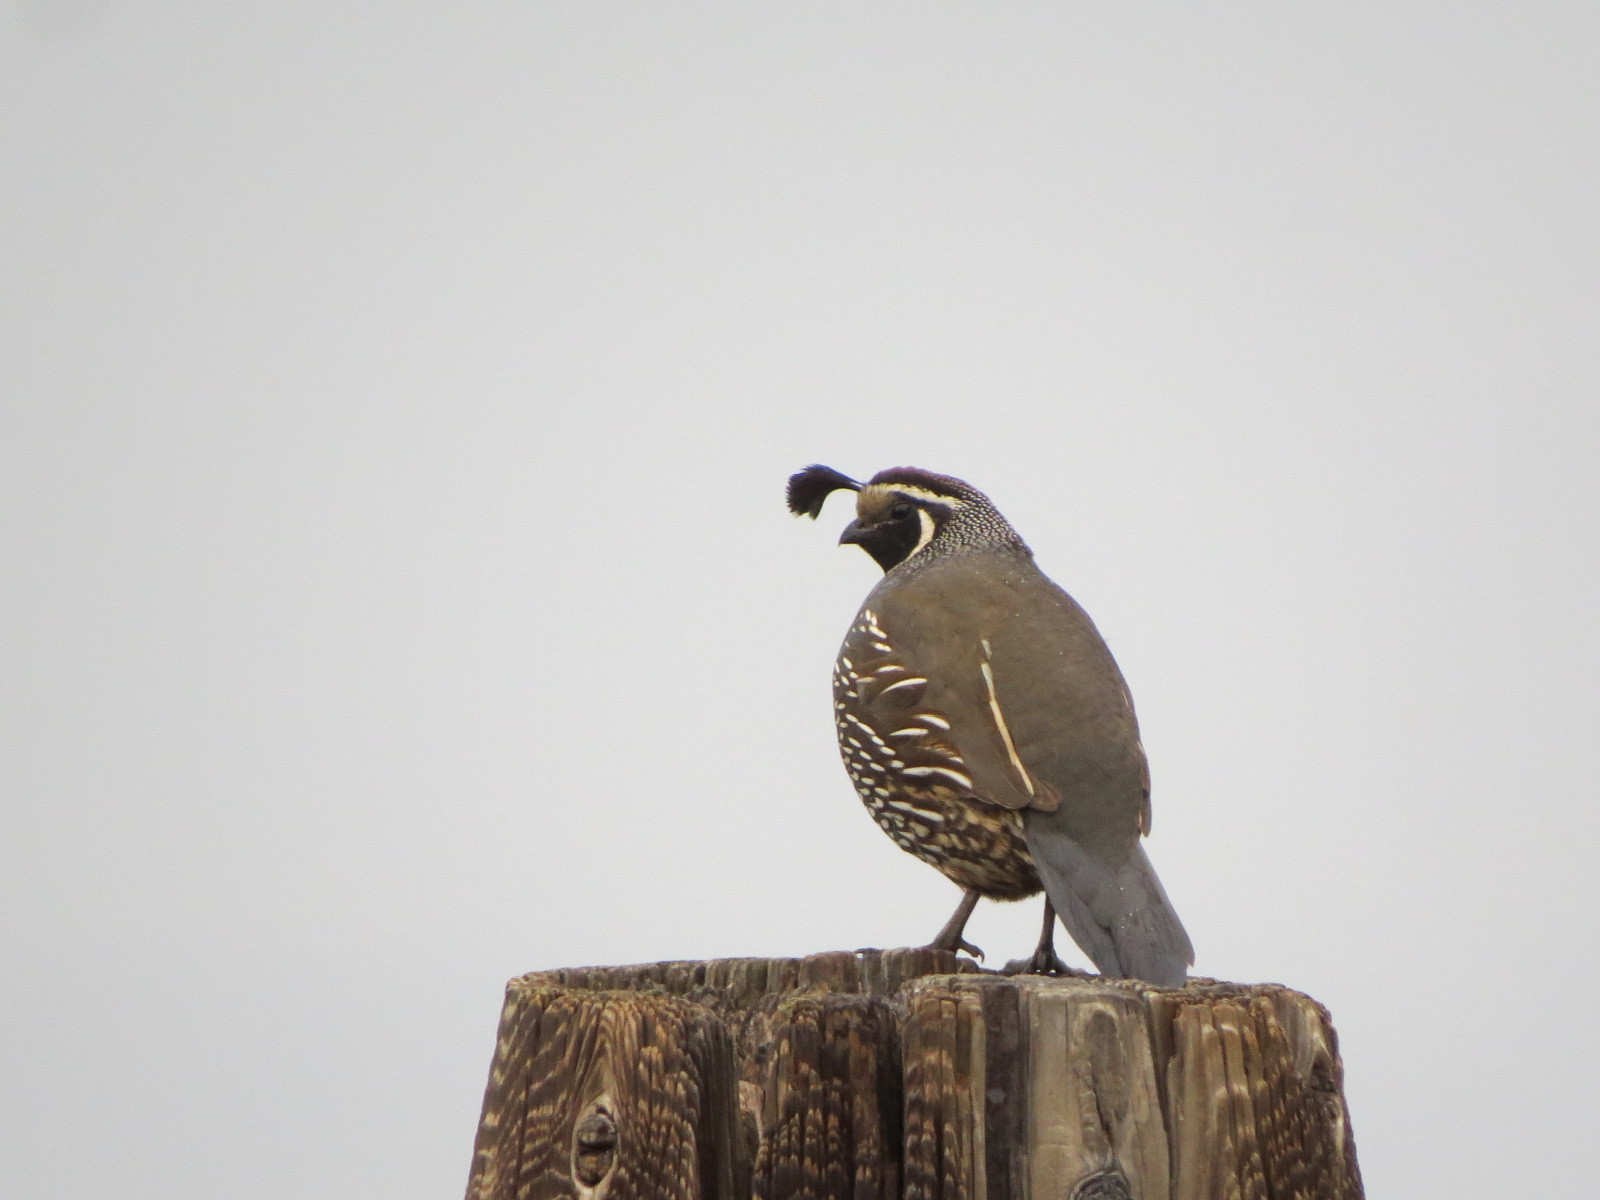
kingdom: Animalia
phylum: Chordata
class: Aves
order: Galliformes
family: Odontophoridae
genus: Callipepla
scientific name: Callipepla californica
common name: California quail
